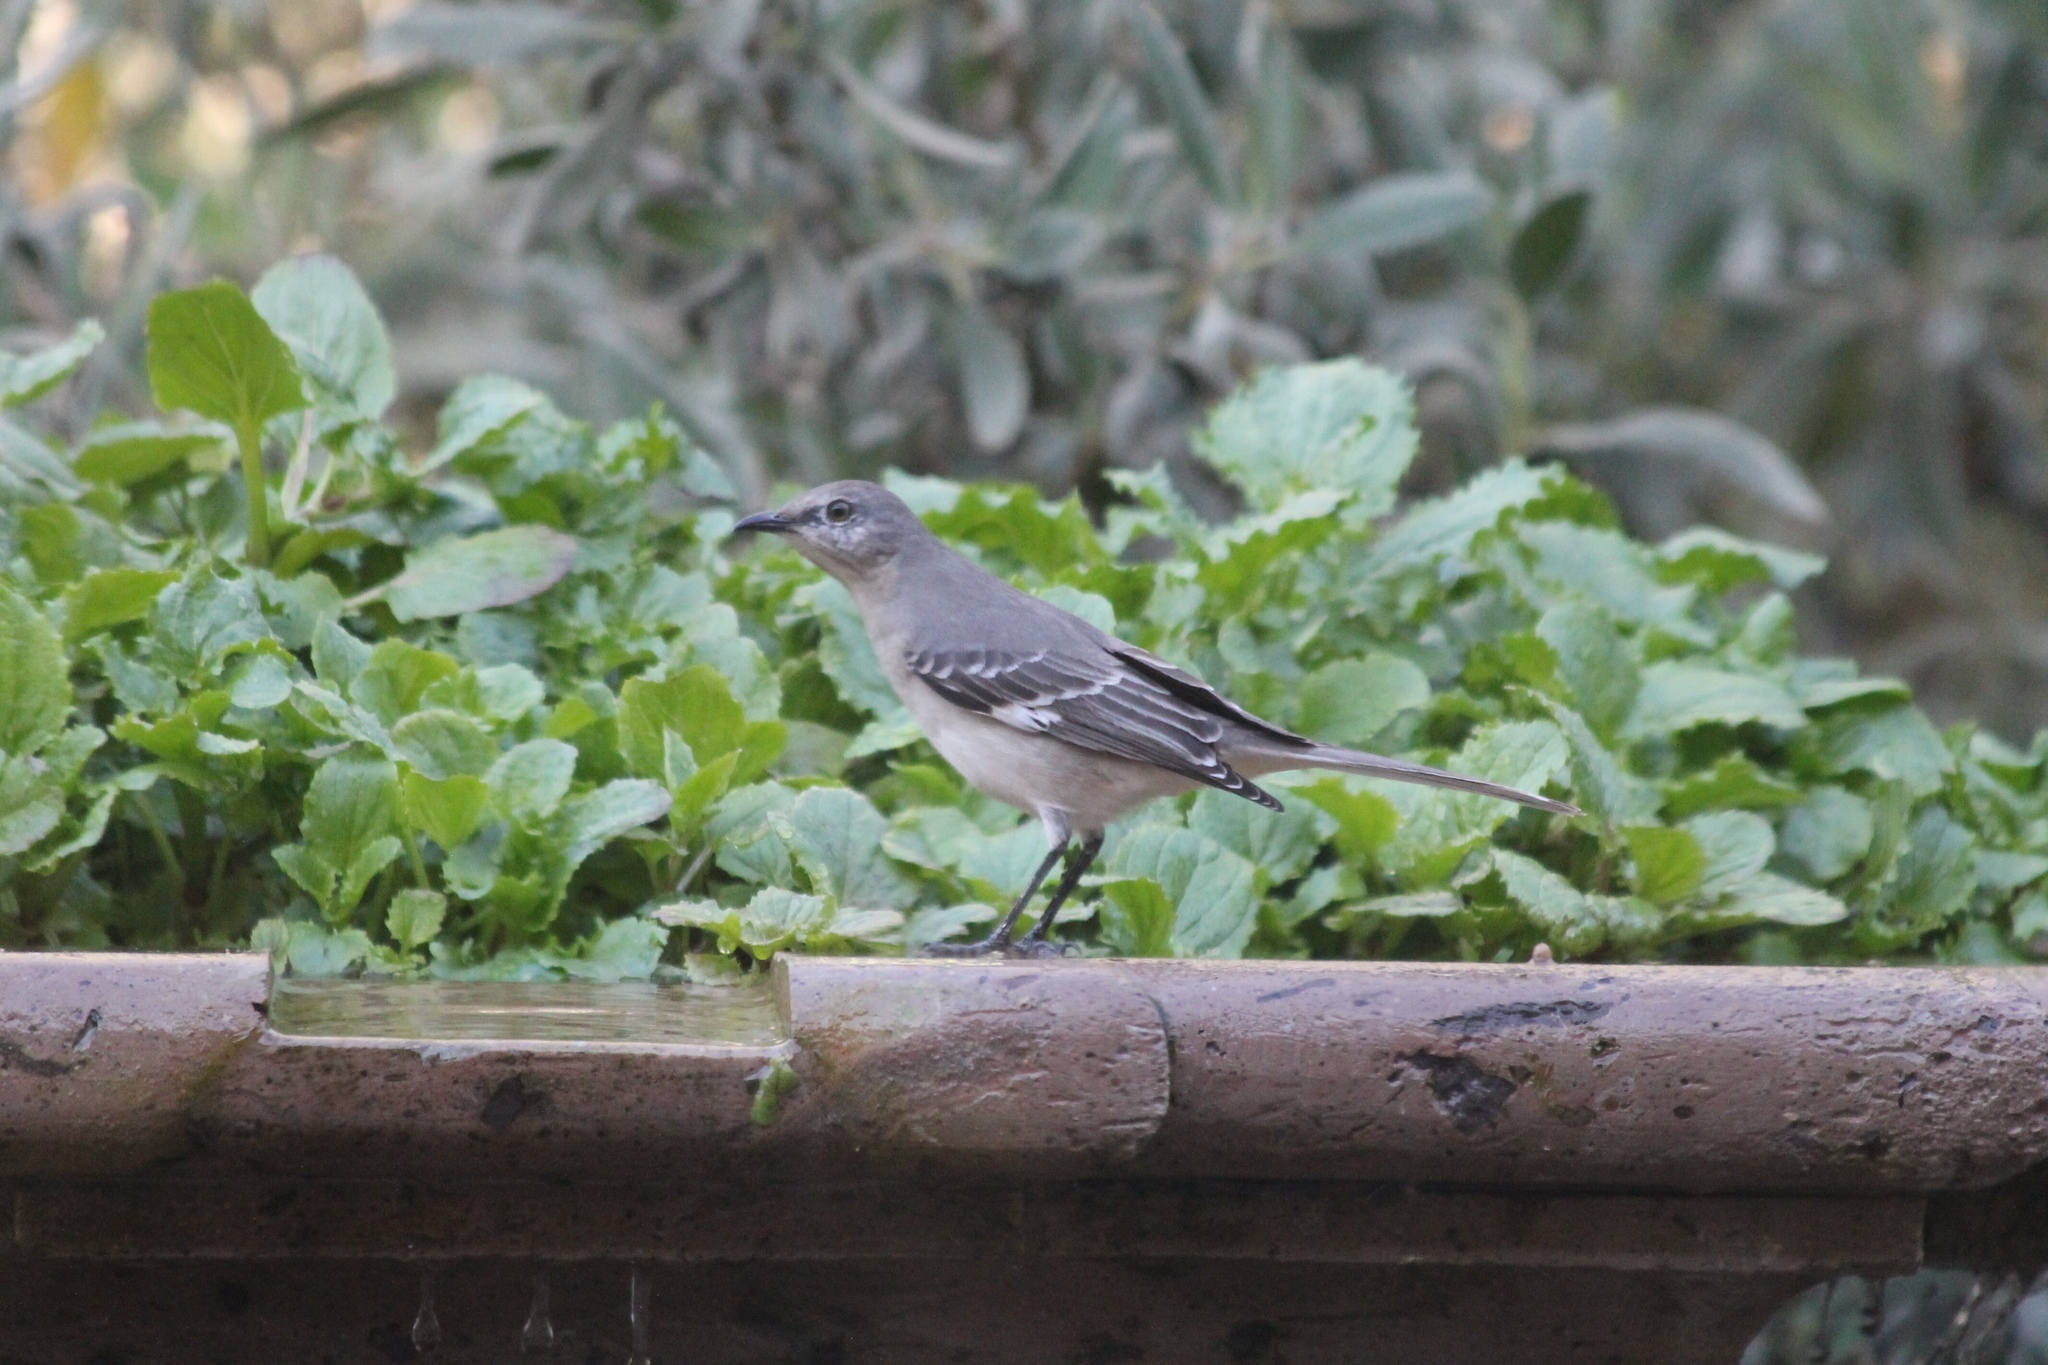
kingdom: Animalia
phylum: Chordata
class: Aves
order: Passeriformes
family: Mimidae
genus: Mimus
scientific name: Mimus polyglottos
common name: Northern mockingbird
